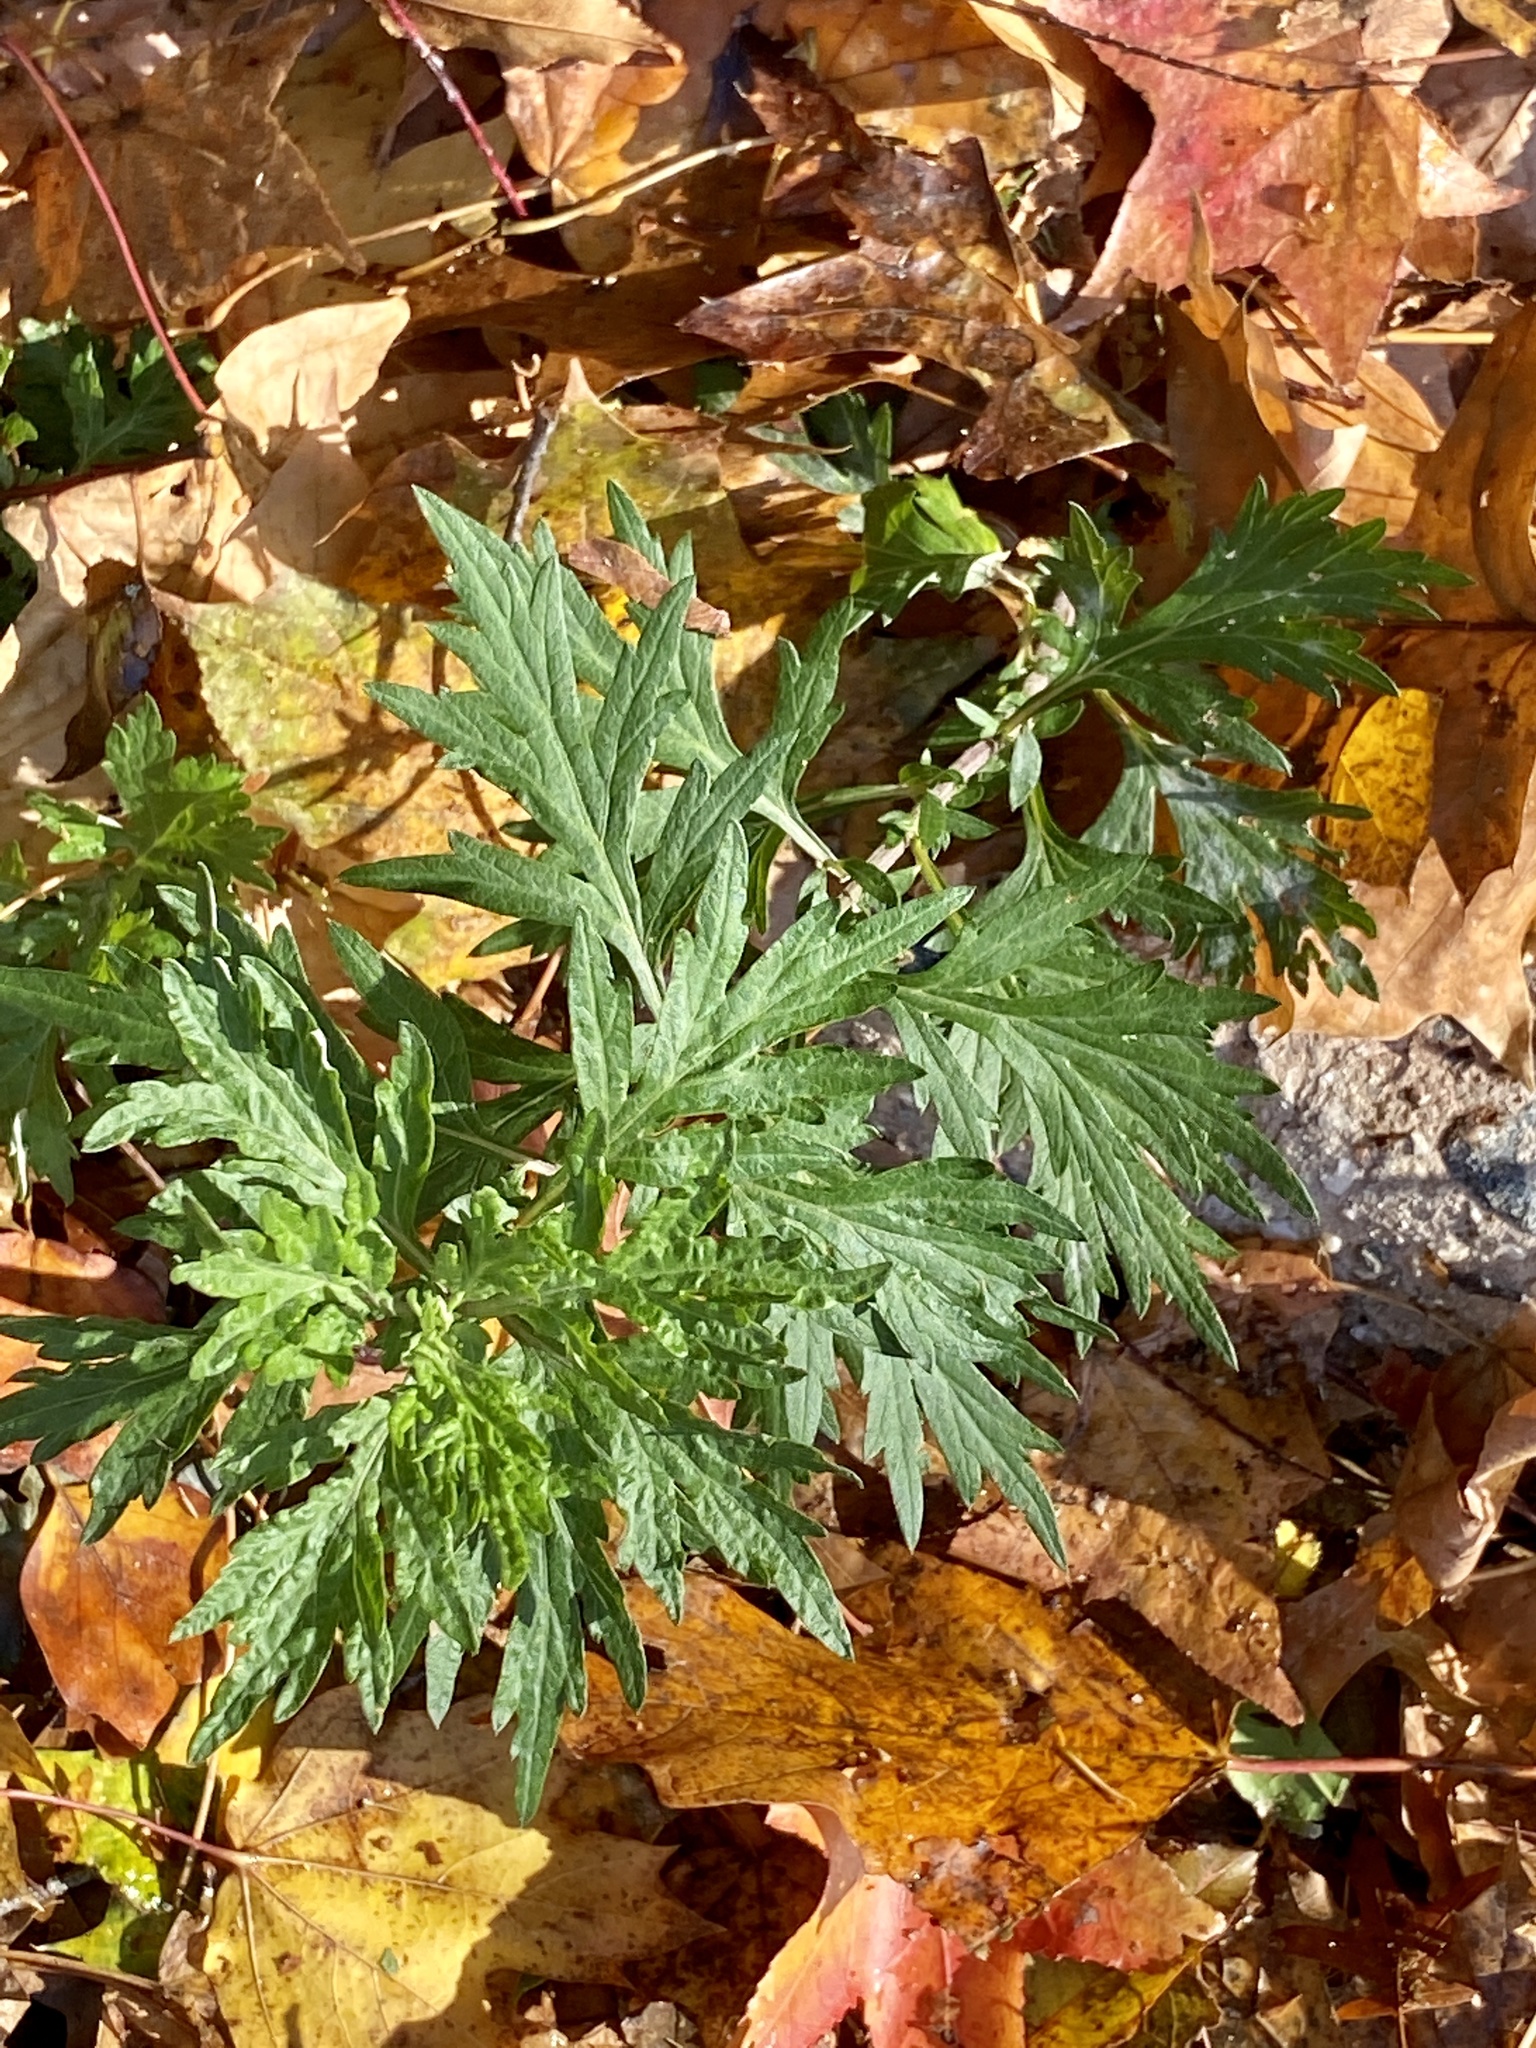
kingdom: Plantae
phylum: Tracheophyta
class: Magnoliopsida
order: Asterales
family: Asteraceae
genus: Artemisia
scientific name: Artemisia vulgaris
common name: Mugwort
